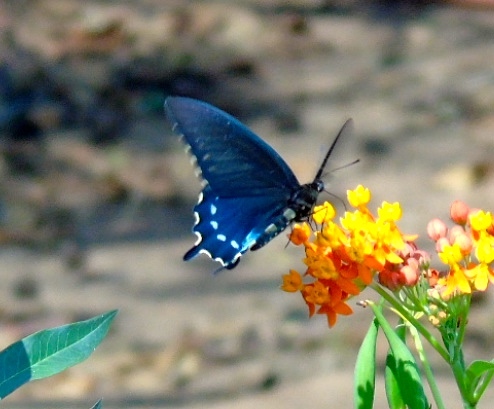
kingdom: Animalia
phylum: Arthropoda
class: Insecta
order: Lepidoptera
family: Papilionidae
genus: Battus
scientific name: Battus philenor
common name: Pipevine swallowtail
